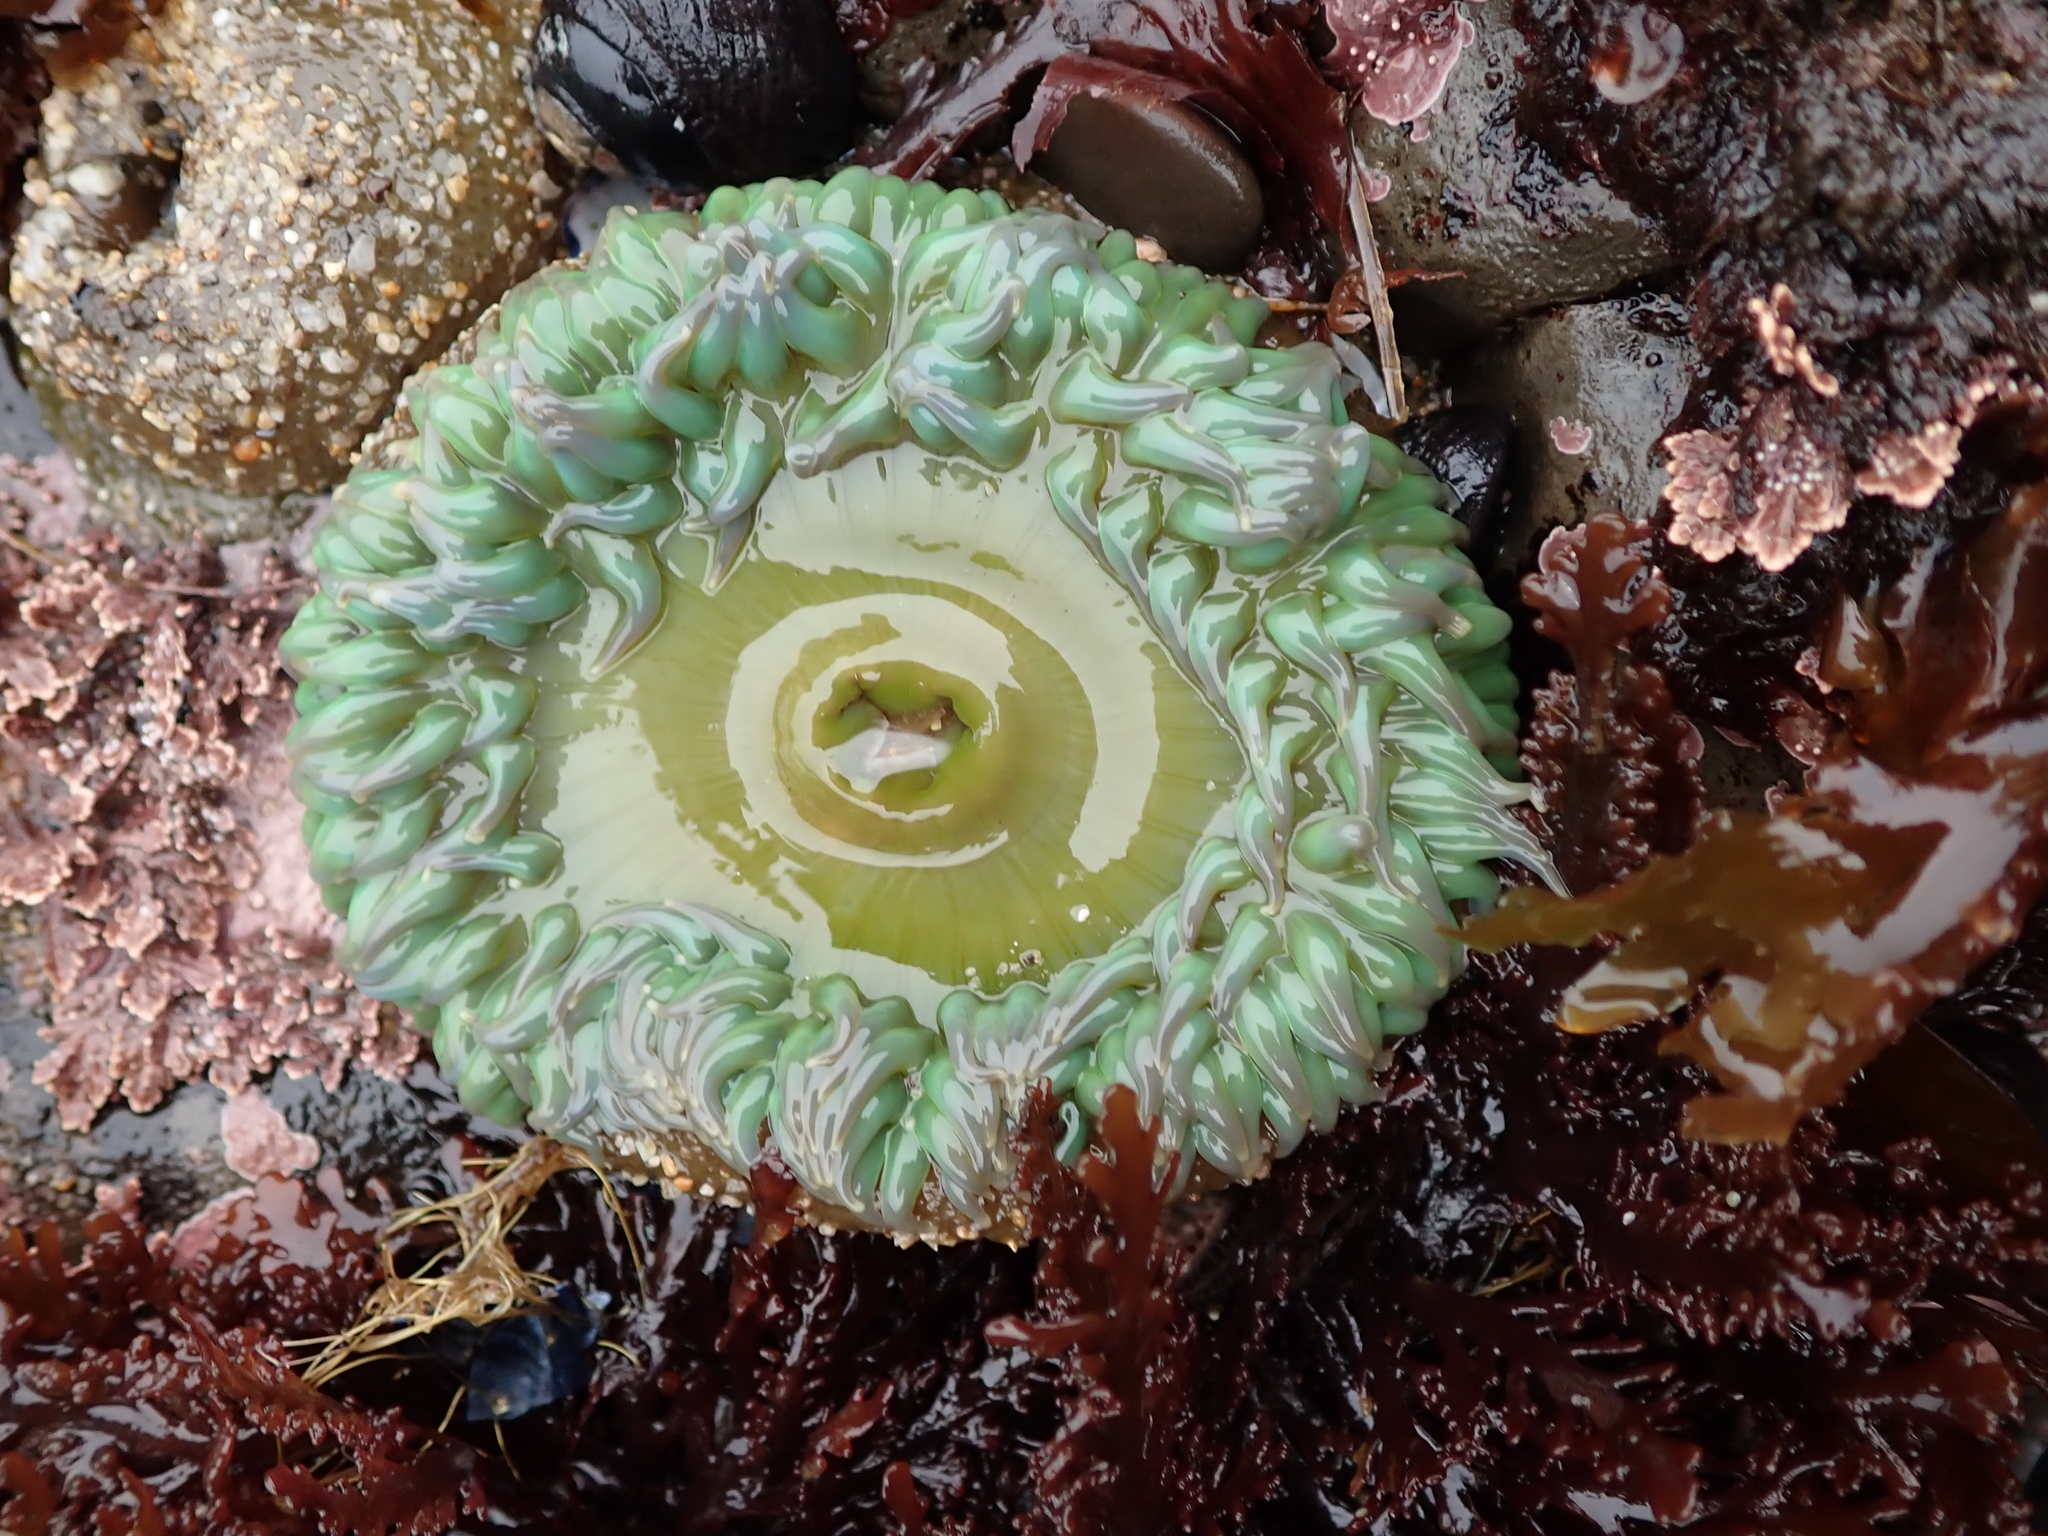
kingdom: Animalia
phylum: Cnidaria
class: Anthozoa
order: Actiniaria
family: Actiniidae
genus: Anthopleura
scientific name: Anthopleura xanthogrammica
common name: Giant green anemone
